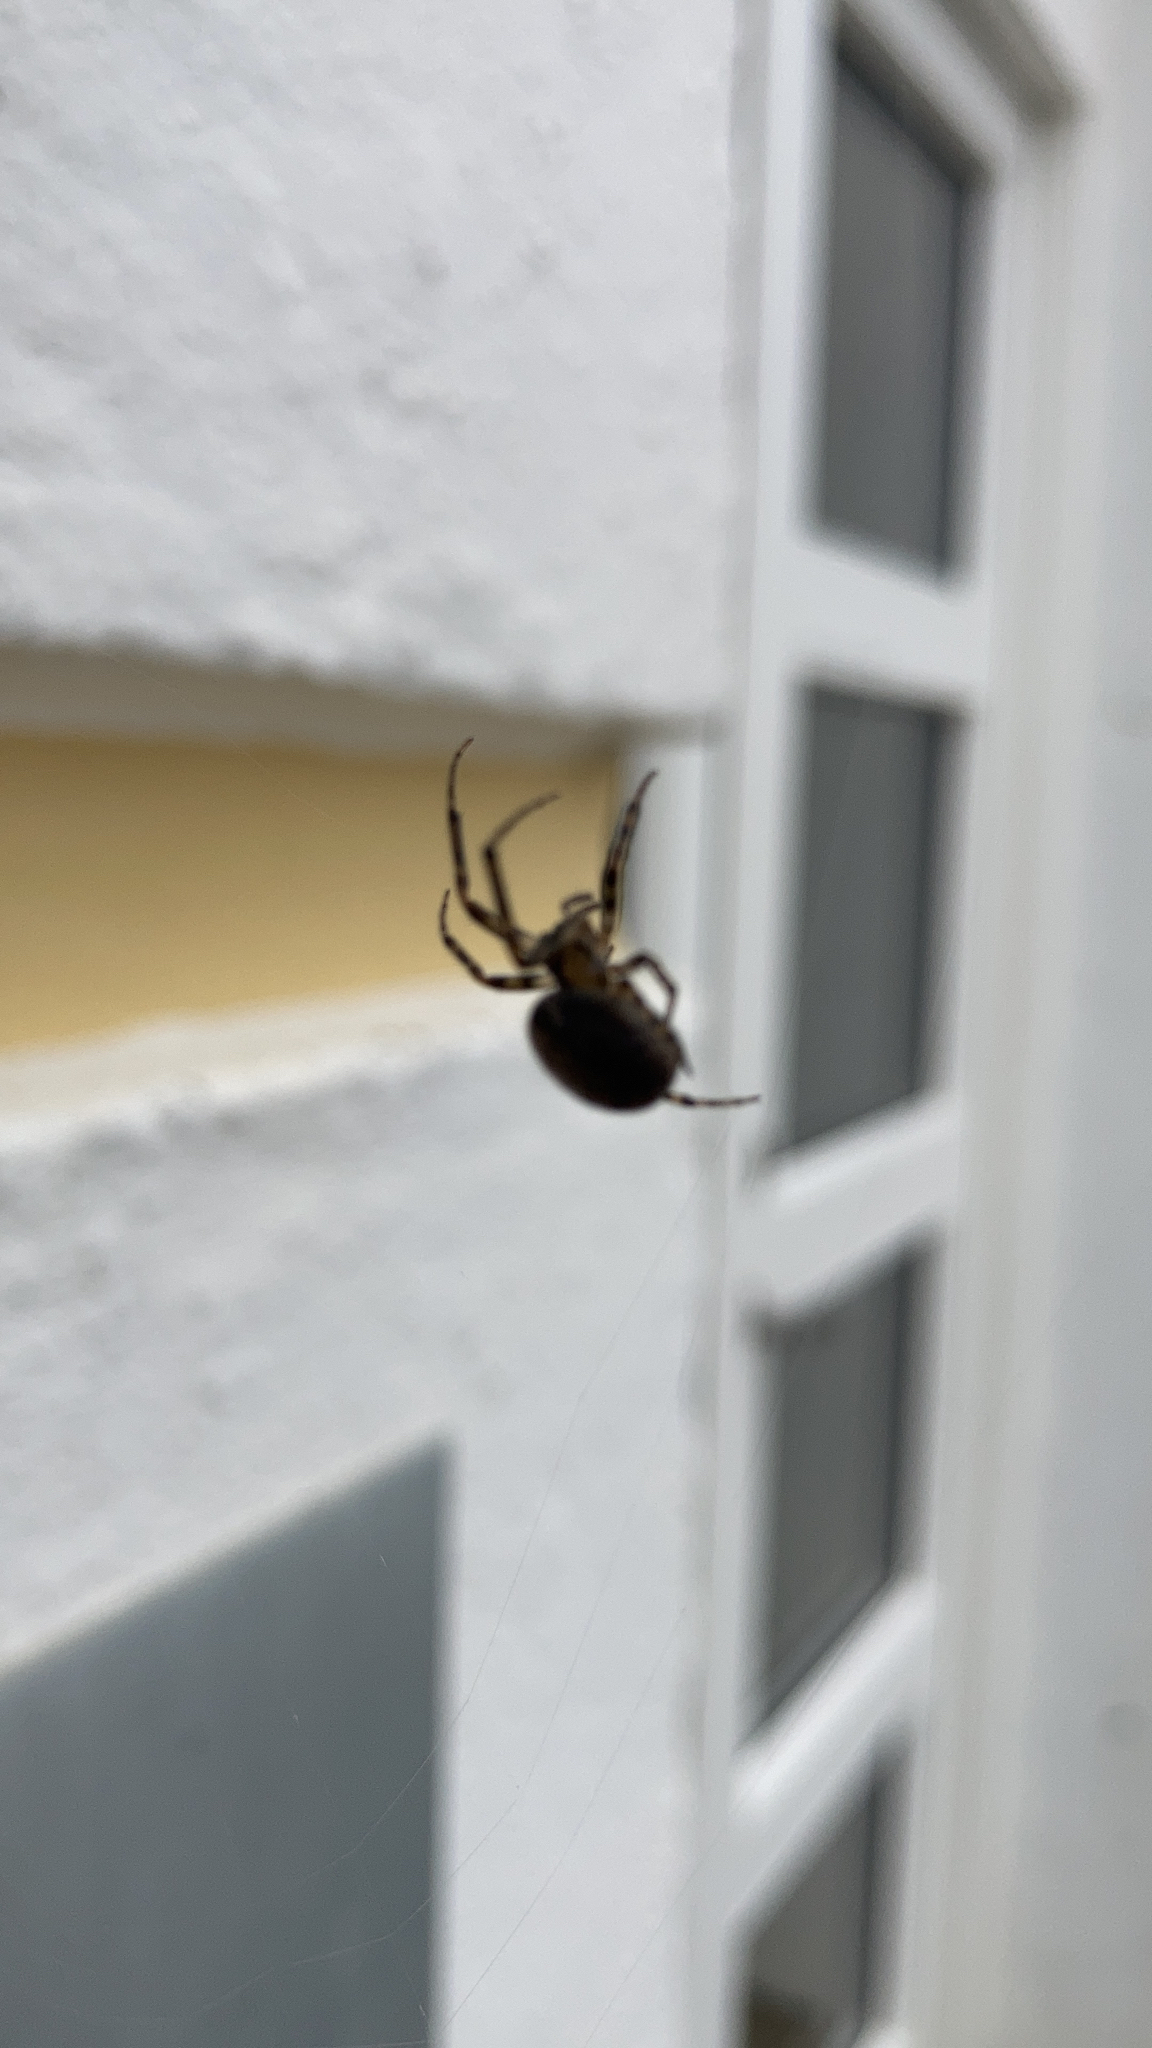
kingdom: Animalia
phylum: Arthropoda
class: Arachnida
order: Araneae
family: Araneidae
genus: Zygiella
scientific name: Zygiella x-notata
